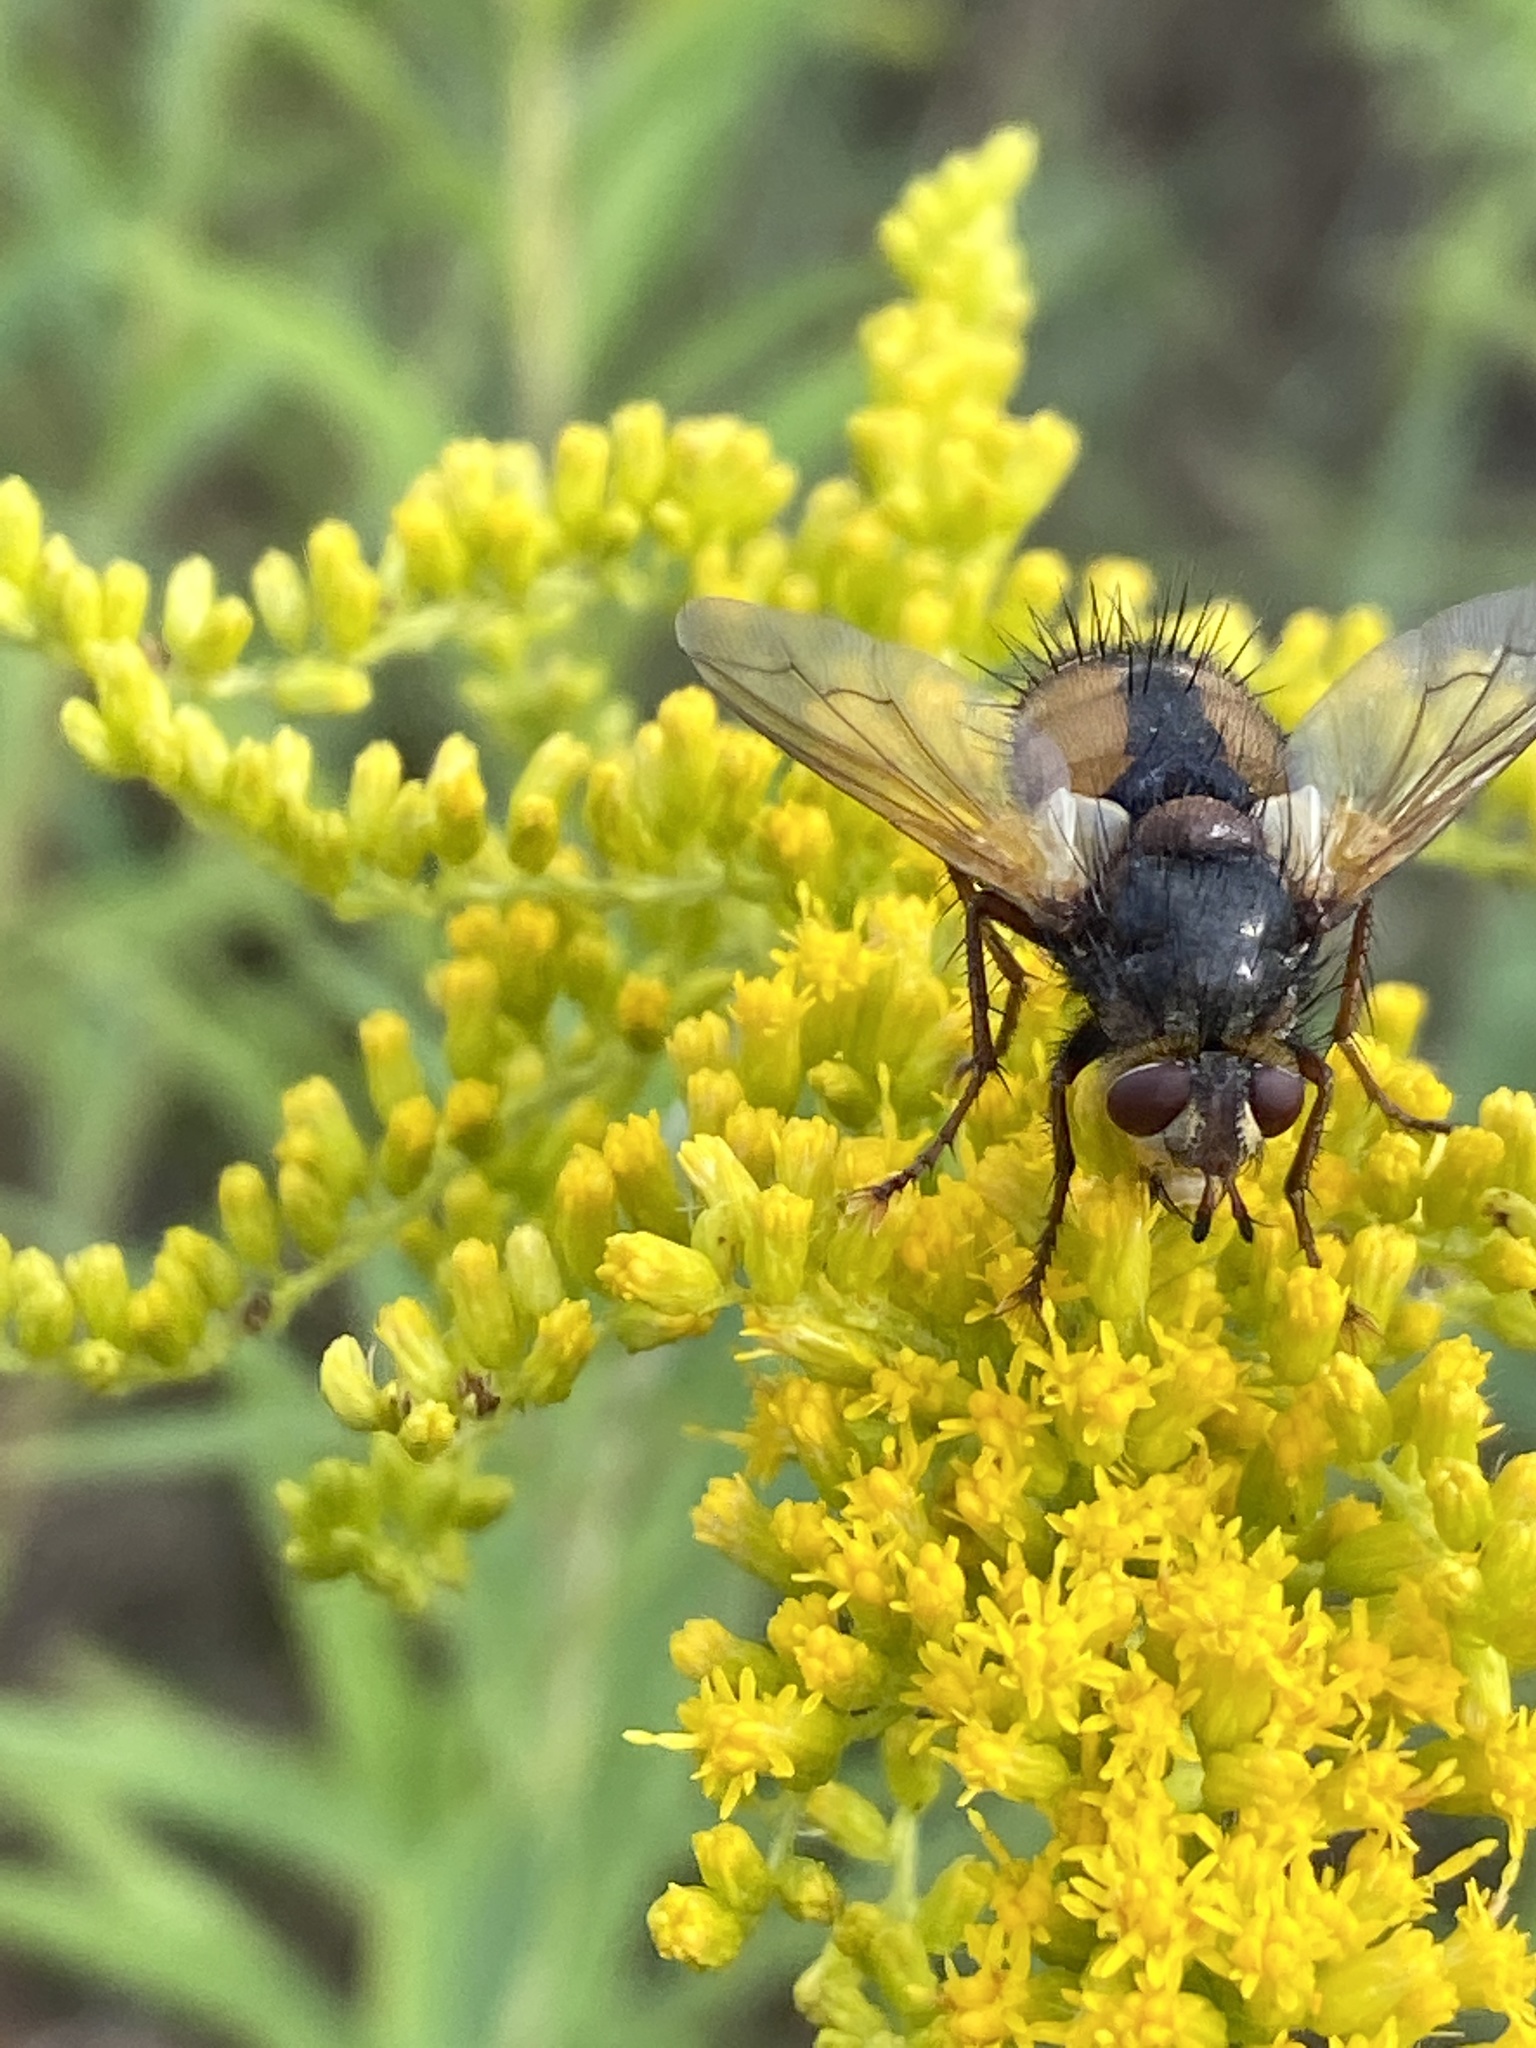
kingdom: Animalia
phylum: Arthropoda
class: Insecta
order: Diptera
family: Tachinidae
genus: Tachina
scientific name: Tachina fera
